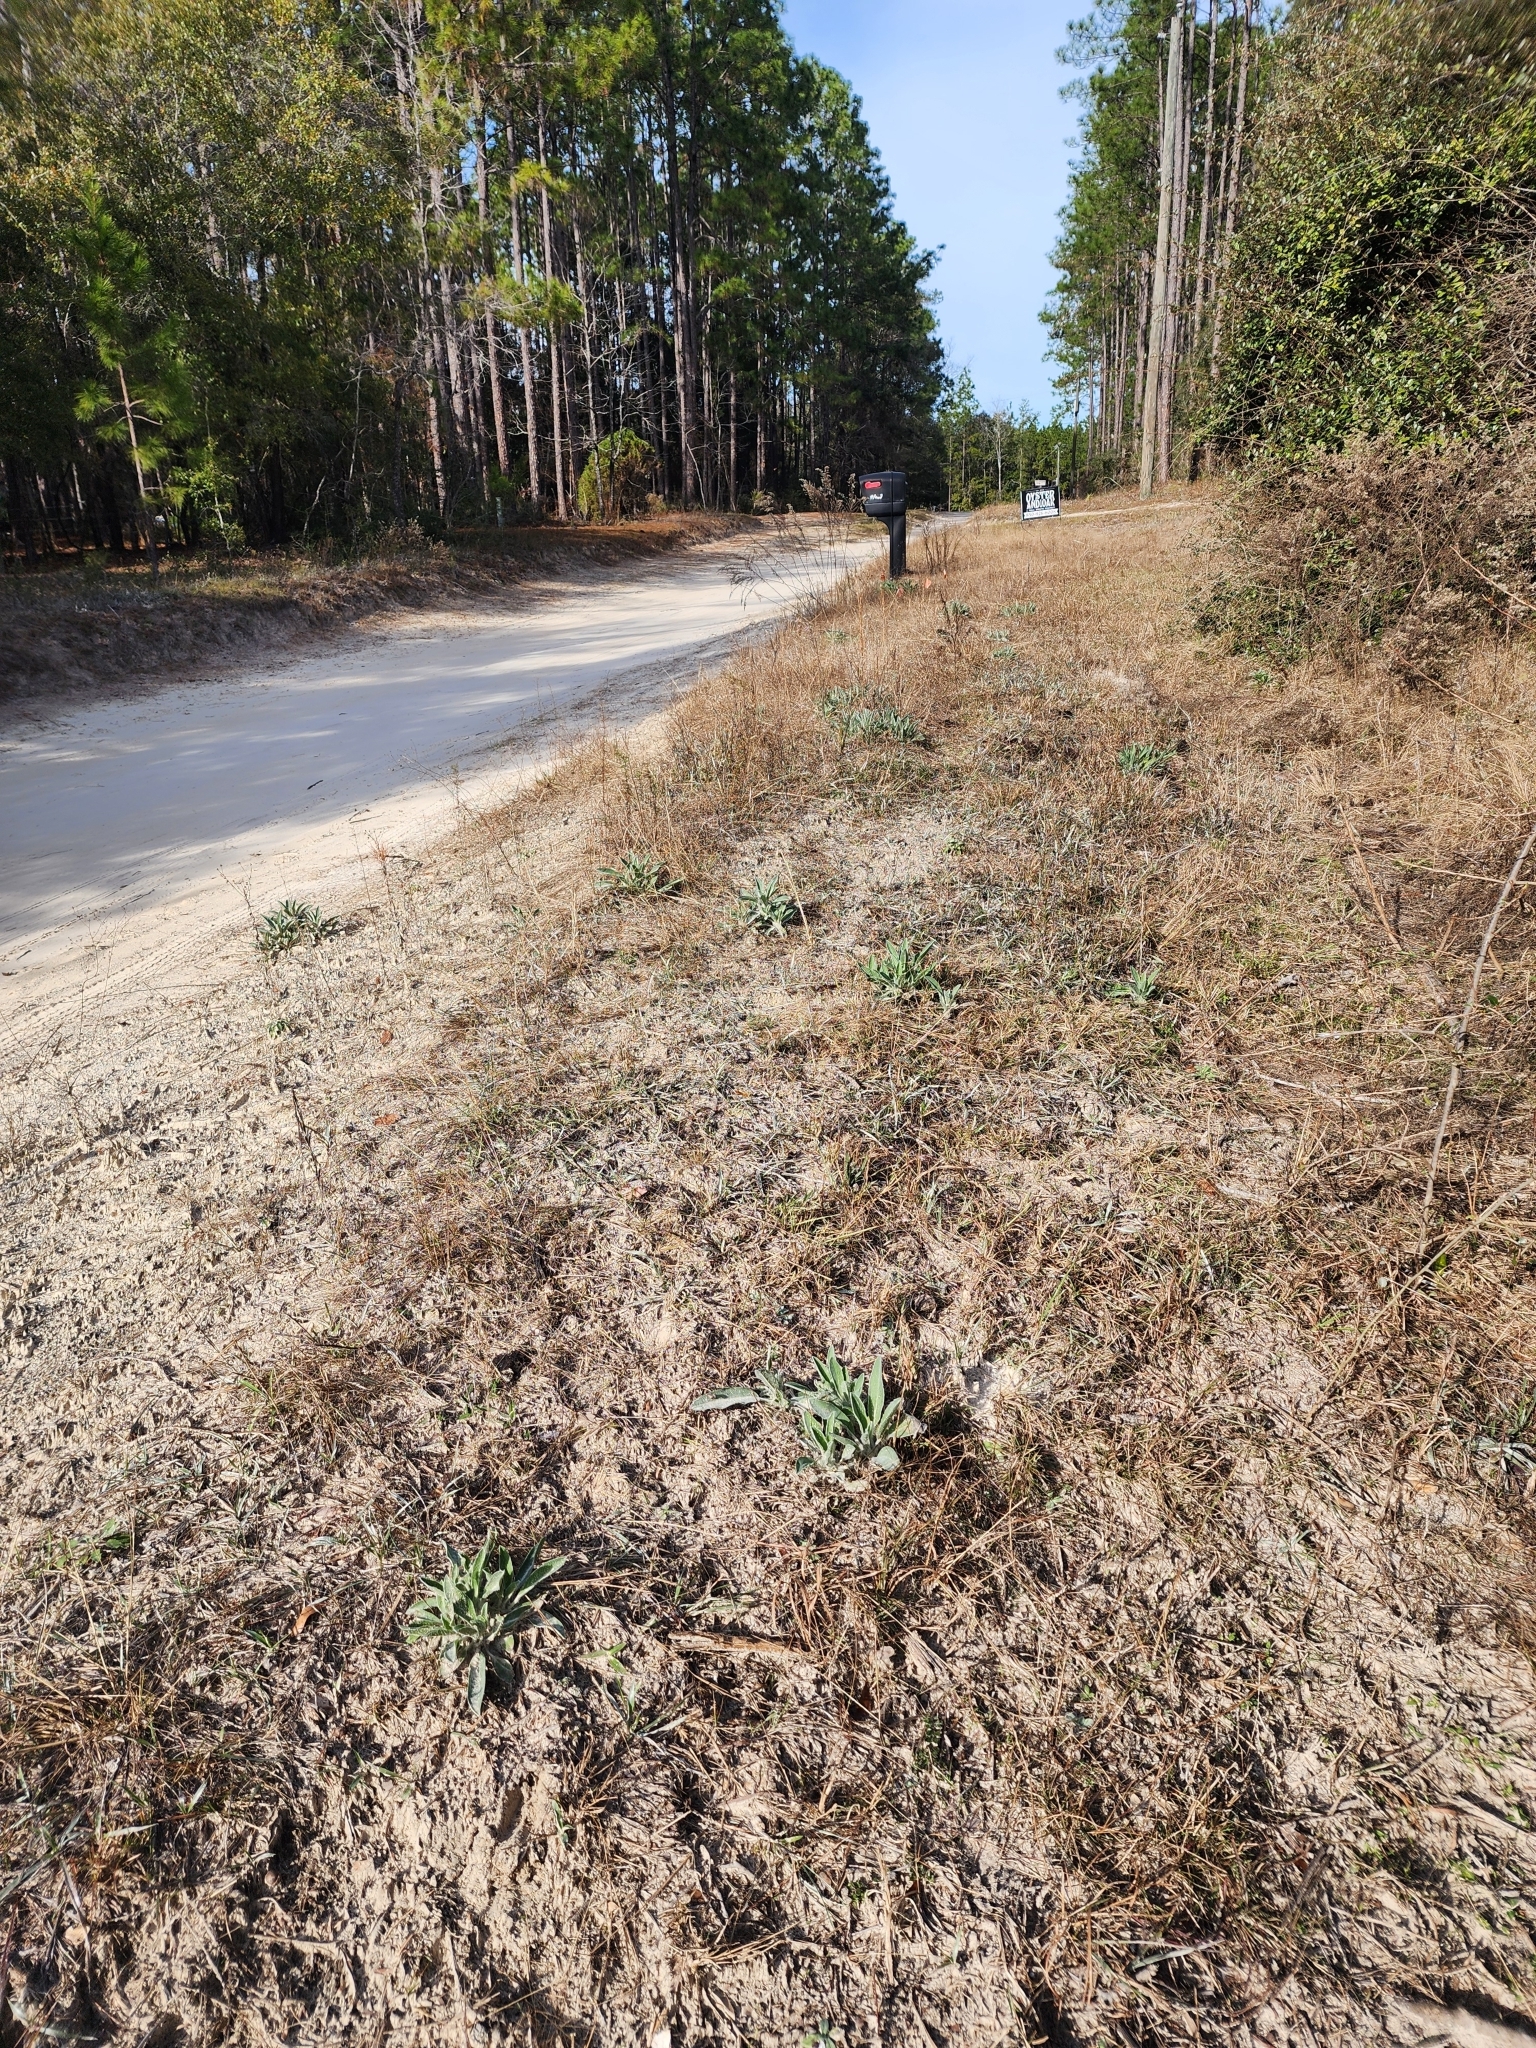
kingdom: Plantae
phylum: Tracheophyta
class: Magnoliopsida
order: Fabales
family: Fabaceae
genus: Lupinus
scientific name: Lupinus villosus
